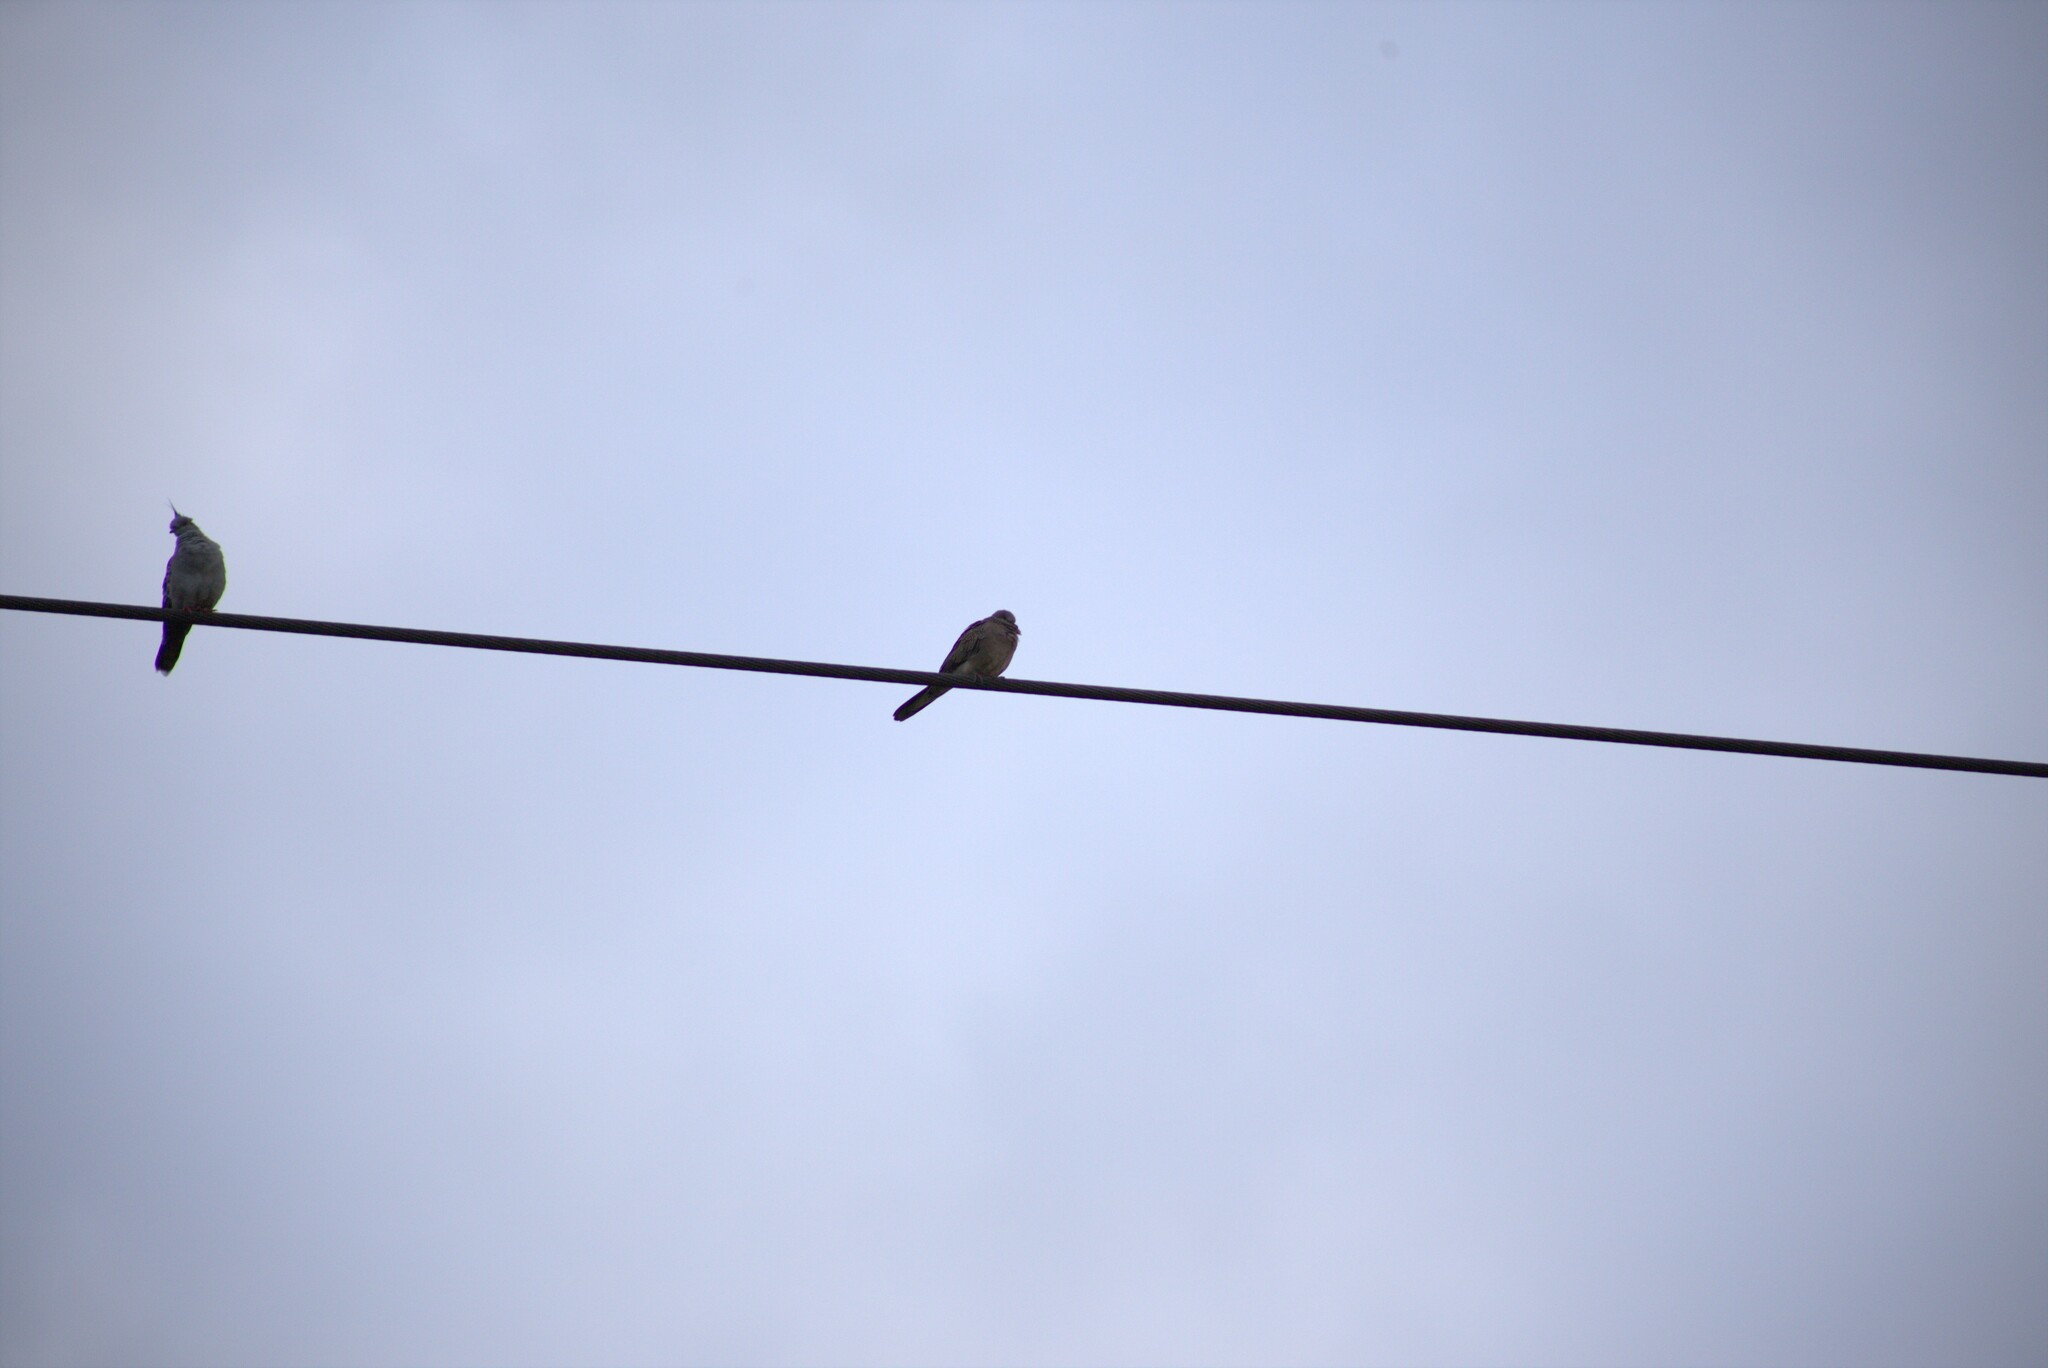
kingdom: Animalia
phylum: Chordata
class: Aves
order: Columbiformes
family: Columbidae
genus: Ocyphaps
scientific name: Ocyphaps lophotes
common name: Crested pigeon
